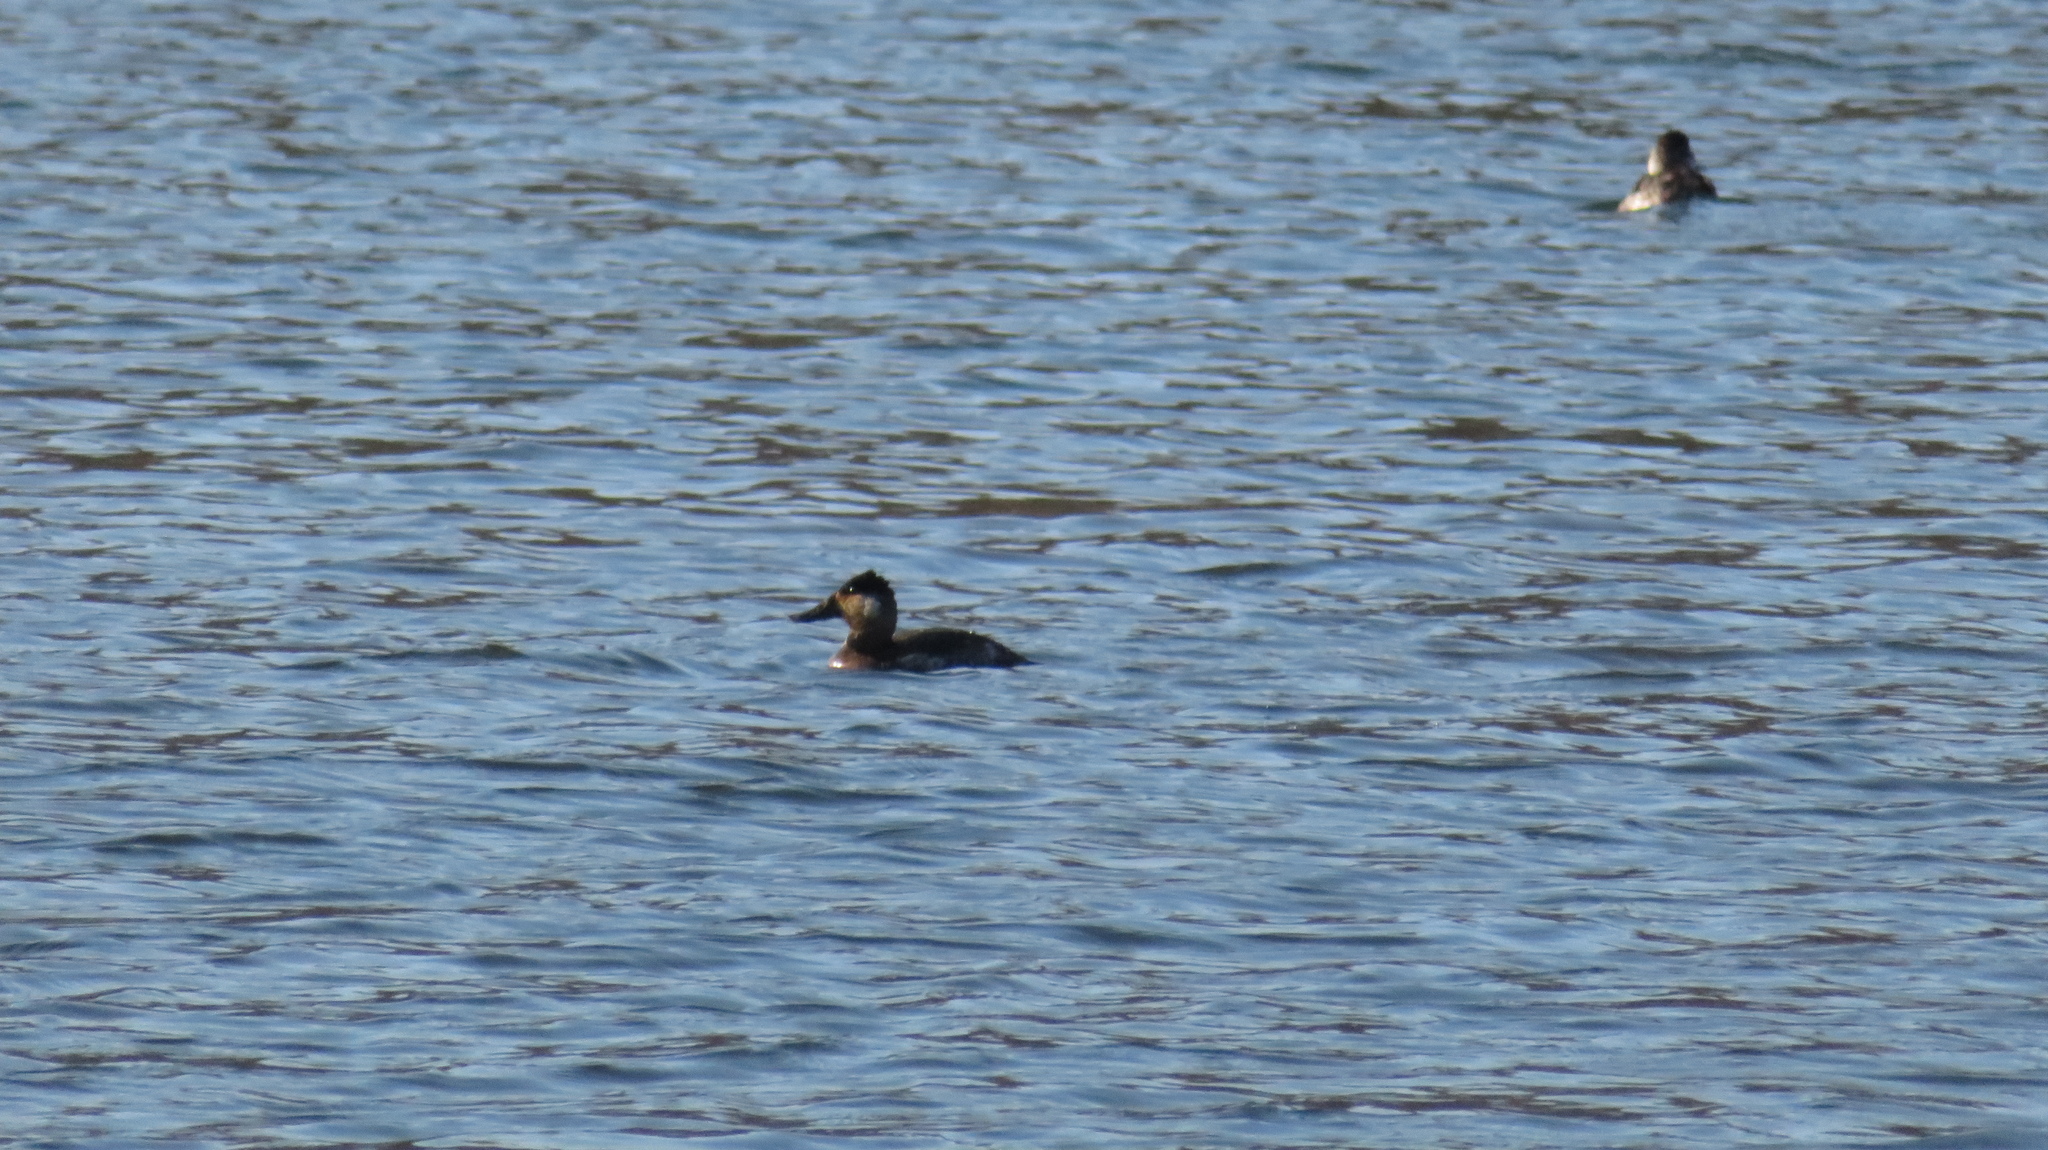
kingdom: Animalia
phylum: Chordata
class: Aves
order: Anseriformes
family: Anatidae
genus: Oxyura
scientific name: Oxyura jamaicensis
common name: Ruddy duck
